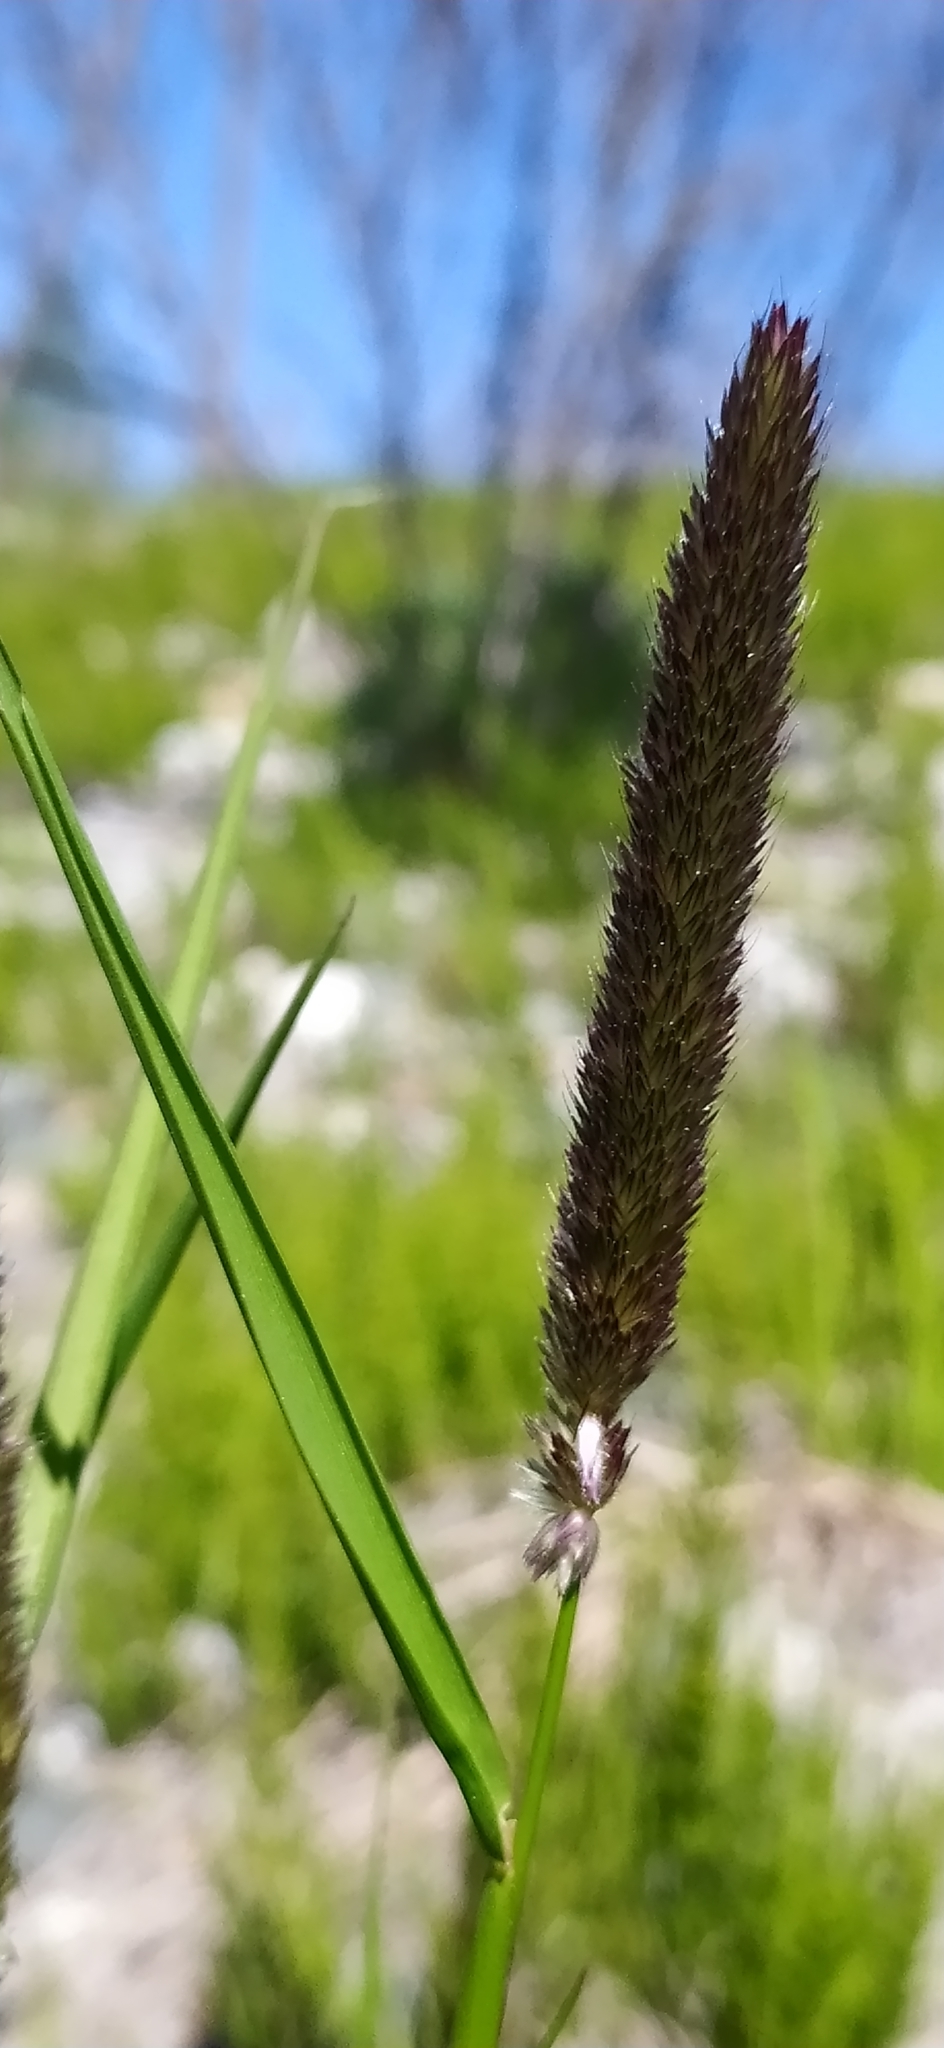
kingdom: Plantae
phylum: Tracheophyta
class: Liliopsida
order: Poales
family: Poaceae
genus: Alopecurus
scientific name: Alopecurus pratensis
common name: Meadow foxtail
